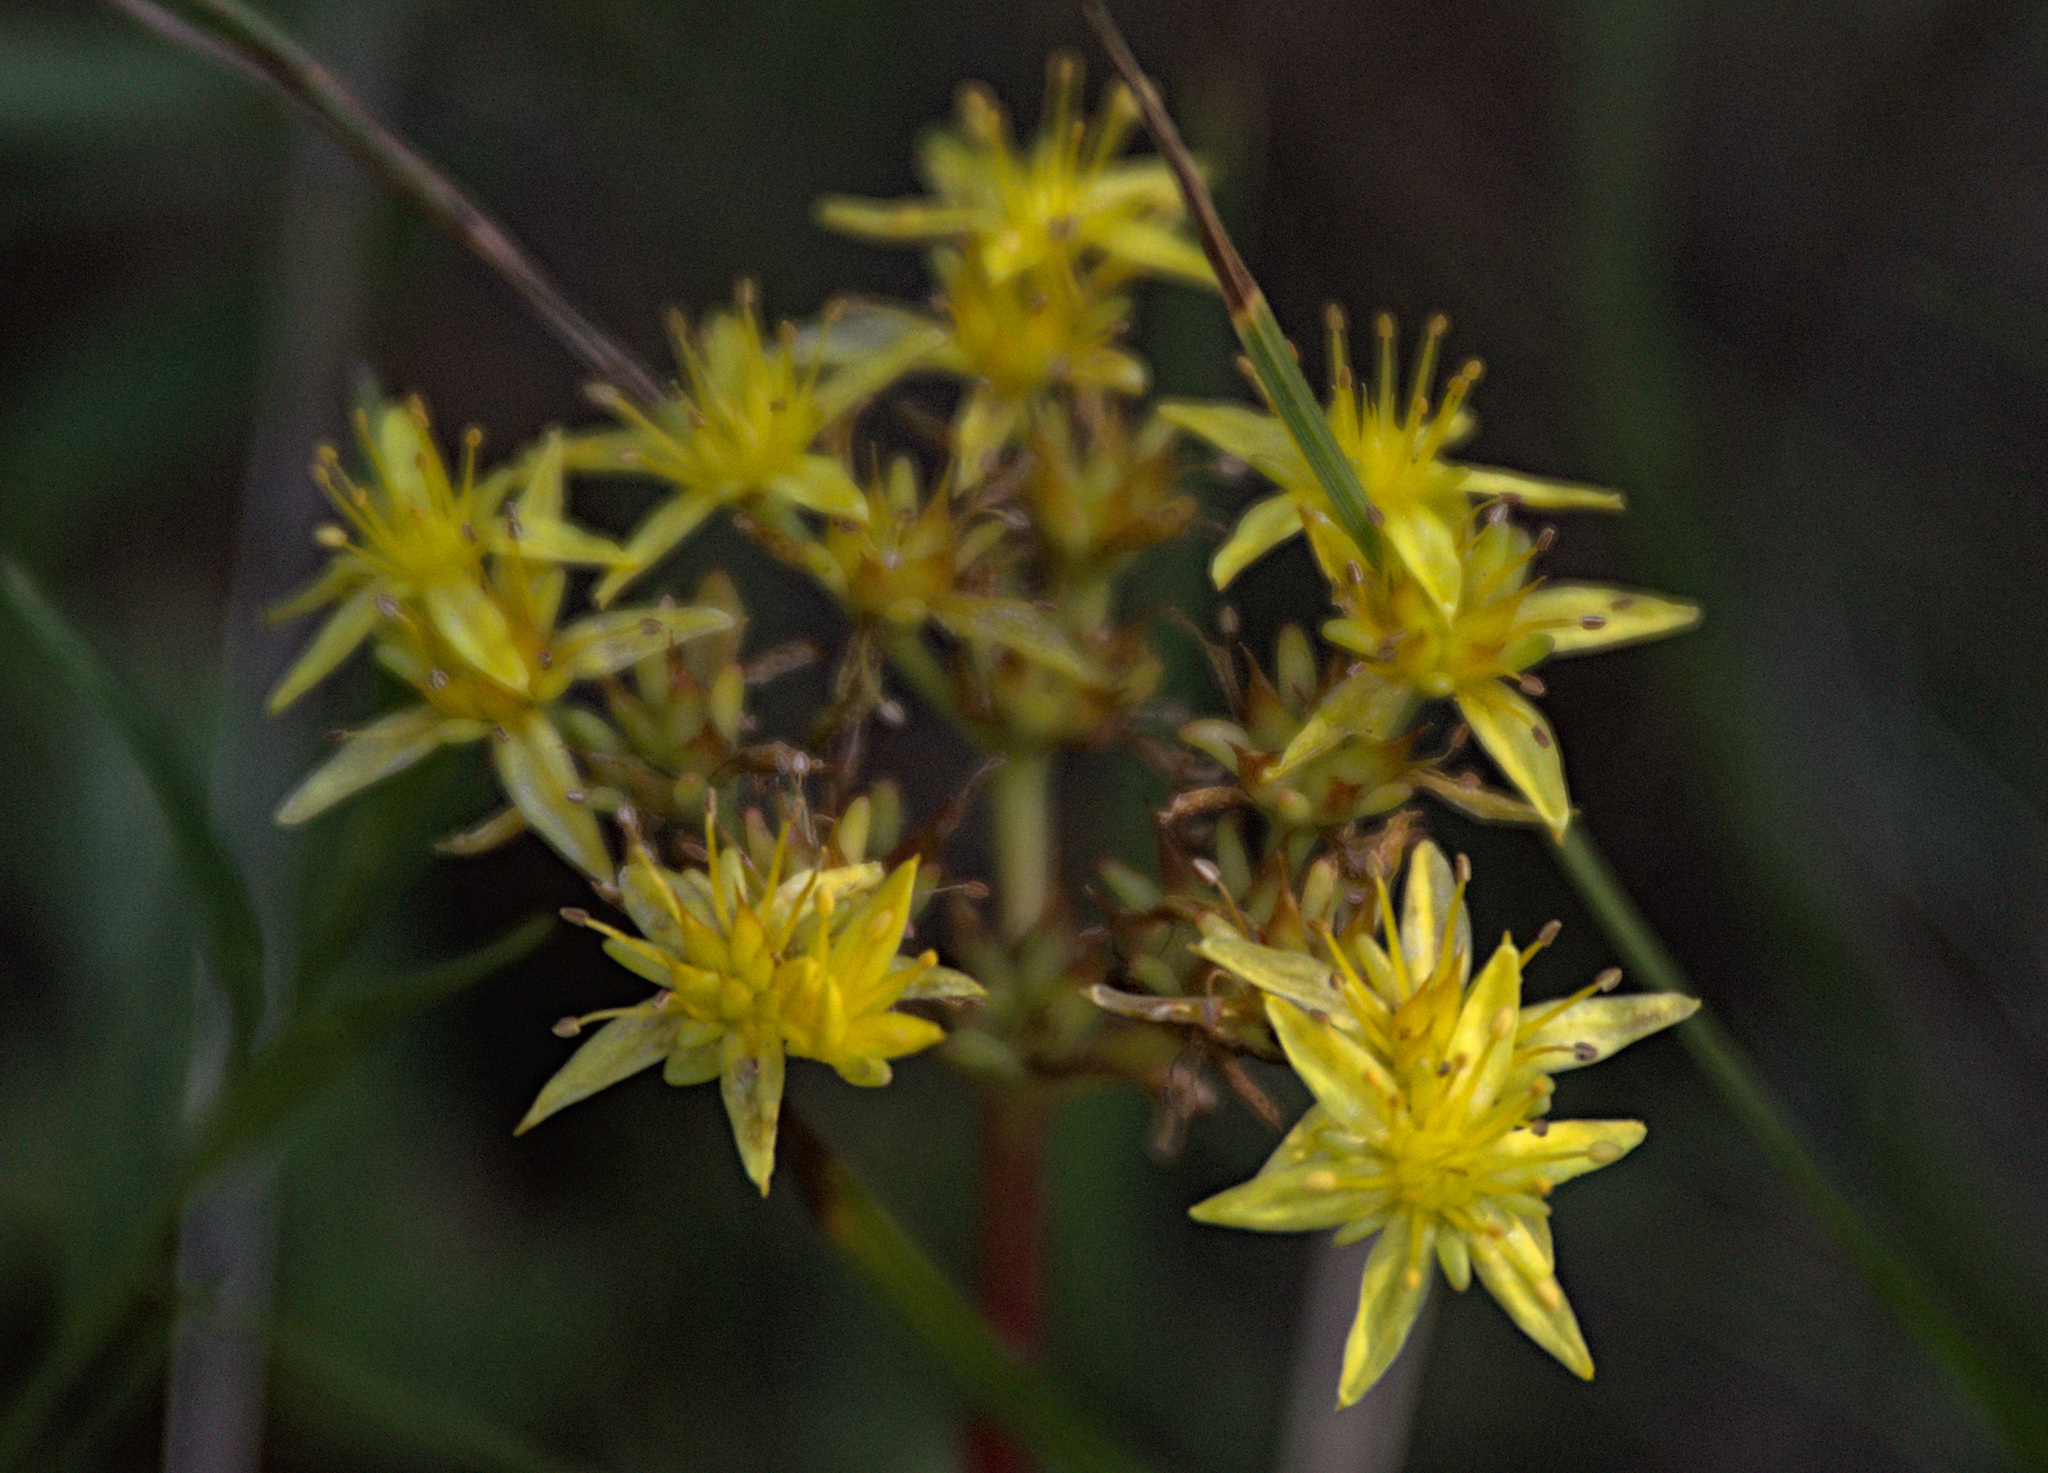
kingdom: Plantae
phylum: Tracheophyta
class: Magnoliopsida
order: Saxifragales
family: Crassulaceae
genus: Phedimus
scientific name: Phedimus hybridus
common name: Hybrid stonecrop
